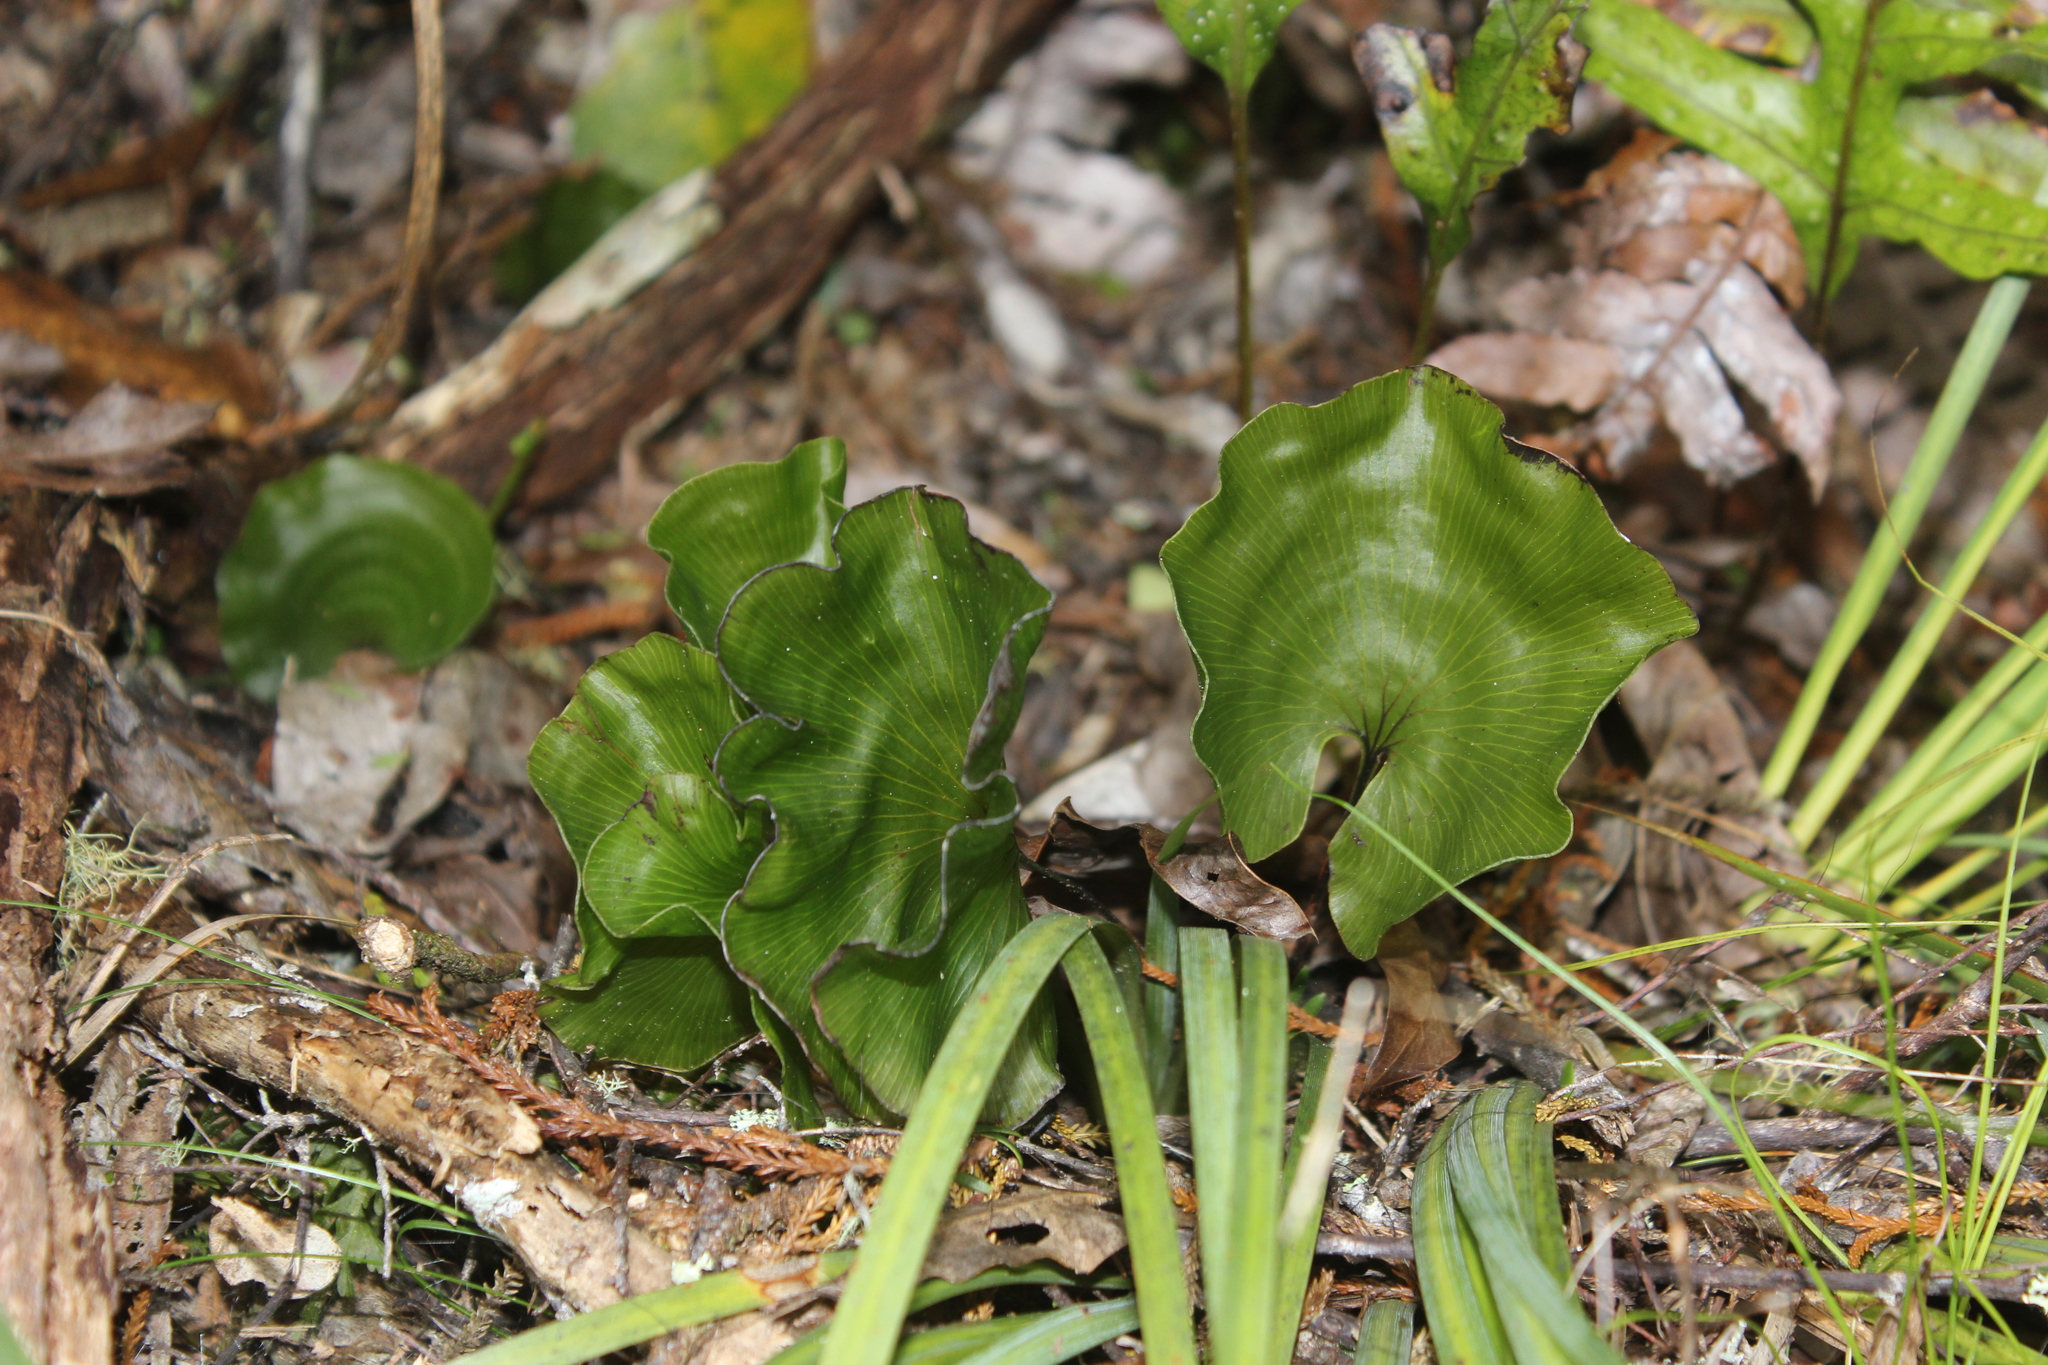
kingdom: Plantae
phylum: Tracheophyta
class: Polypodiopsida
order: Hymenophyllales
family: Hymenophyllaceae
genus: Hymenophyllum
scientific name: Hymenophyllum nephrophyllum
